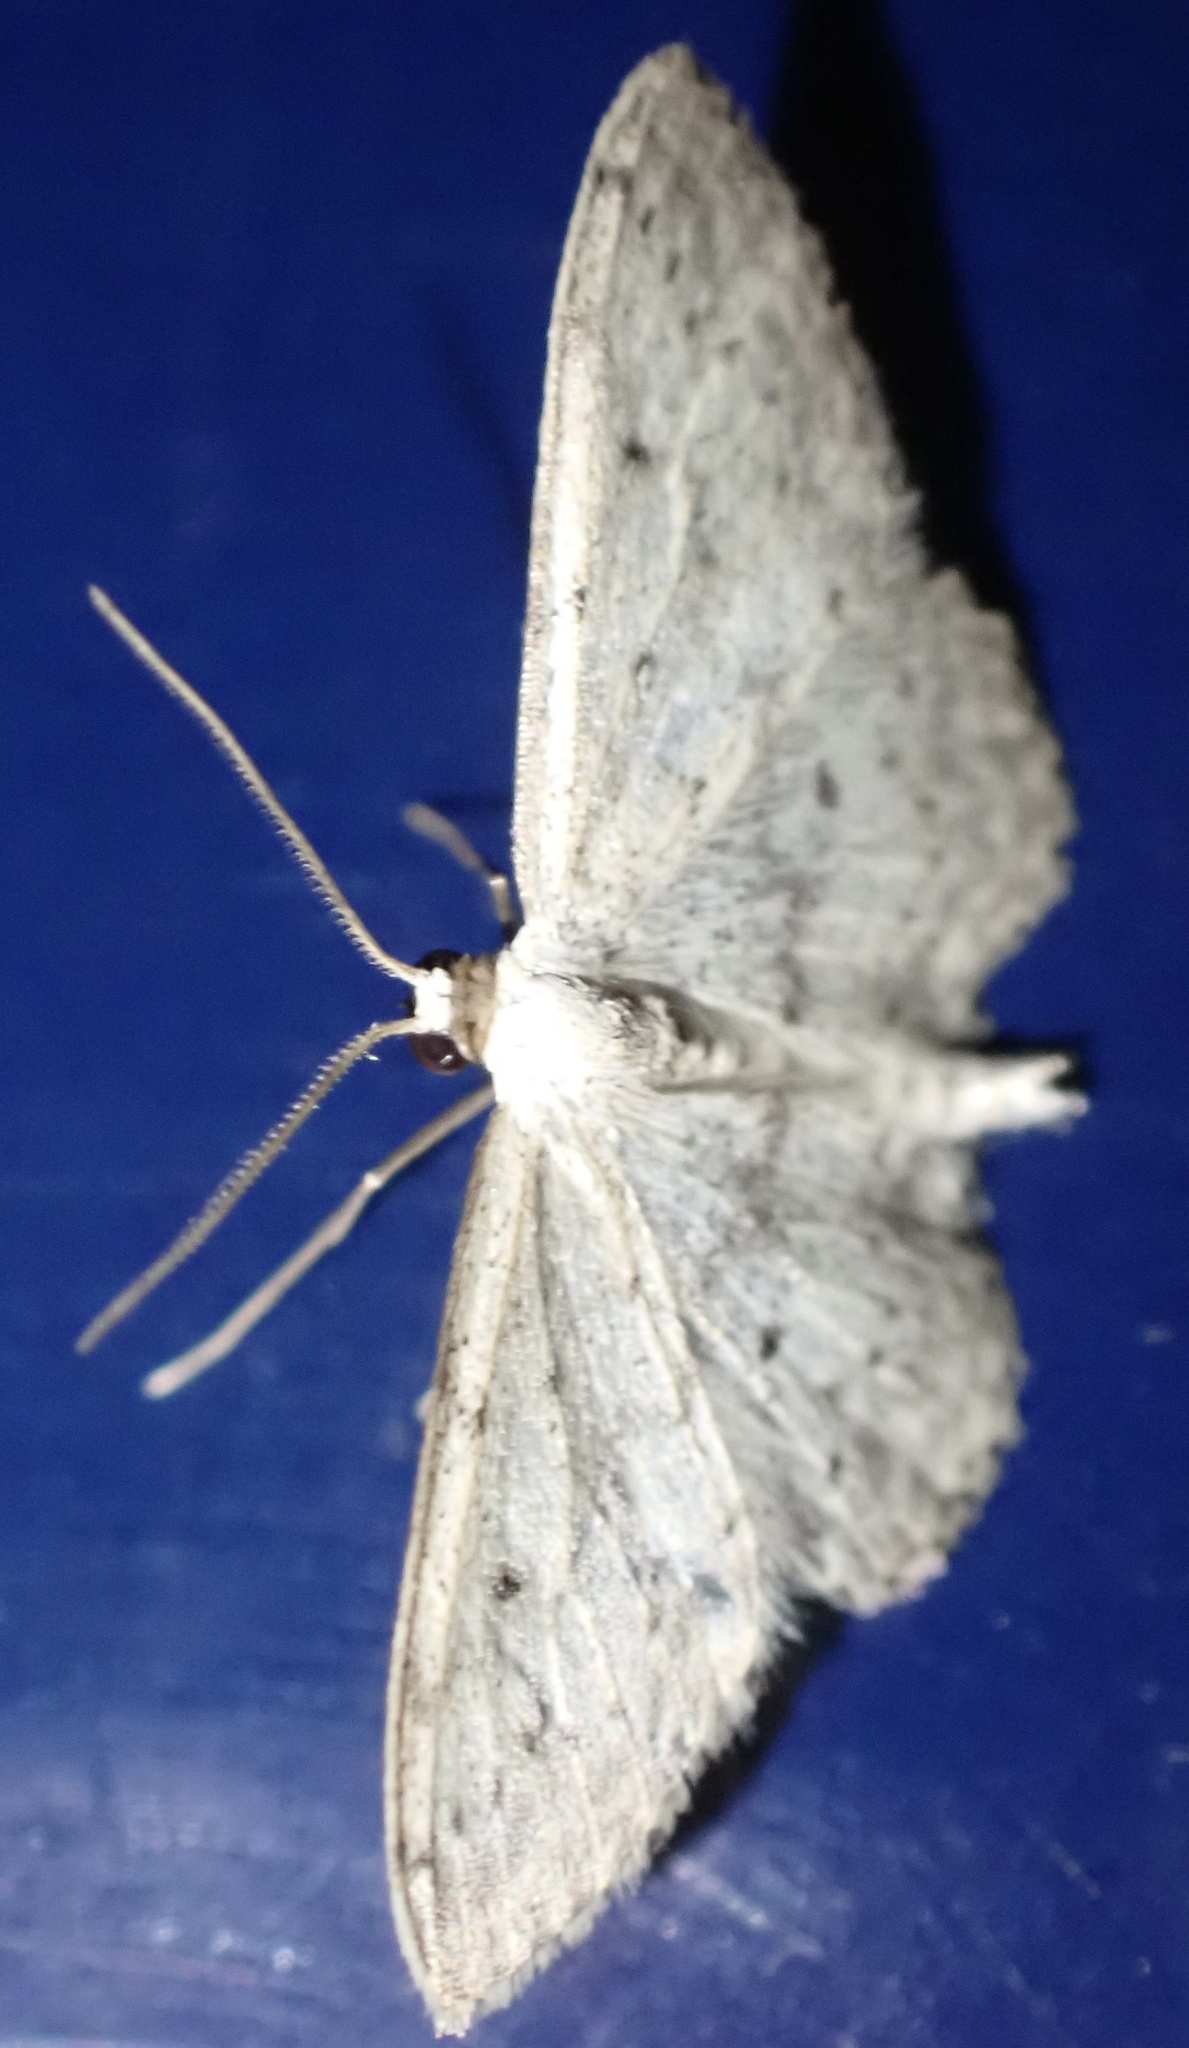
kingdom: Animalia
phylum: Arthropoda
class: Insecta
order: Lepidoptera
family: Geometridae
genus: Idaea
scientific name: Idaea seriata
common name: Small dusty wave
